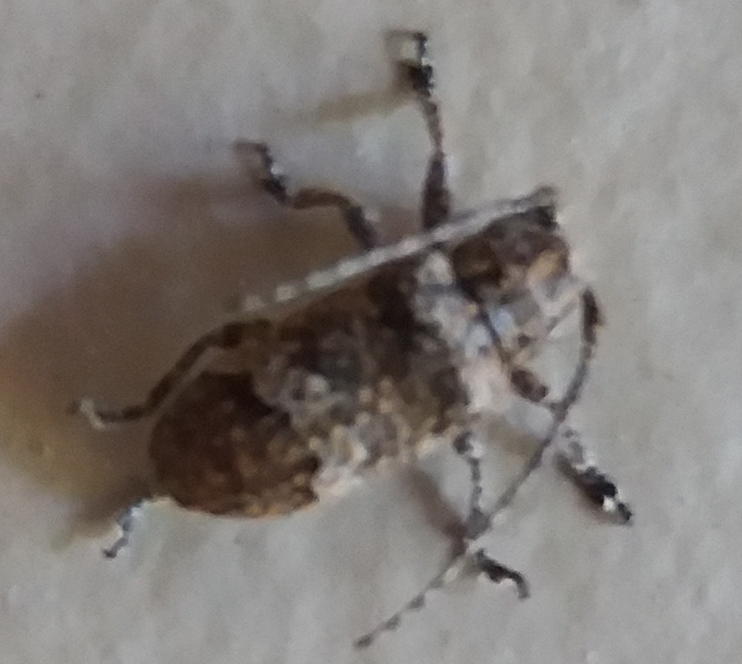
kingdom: Animalia
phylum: Arthropoda
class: Insecta
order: Coleoptera
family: Cerambycidae
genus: Rhytiphora
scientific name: Rhytiphora bankii
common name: Prosoplus long horned beetle
